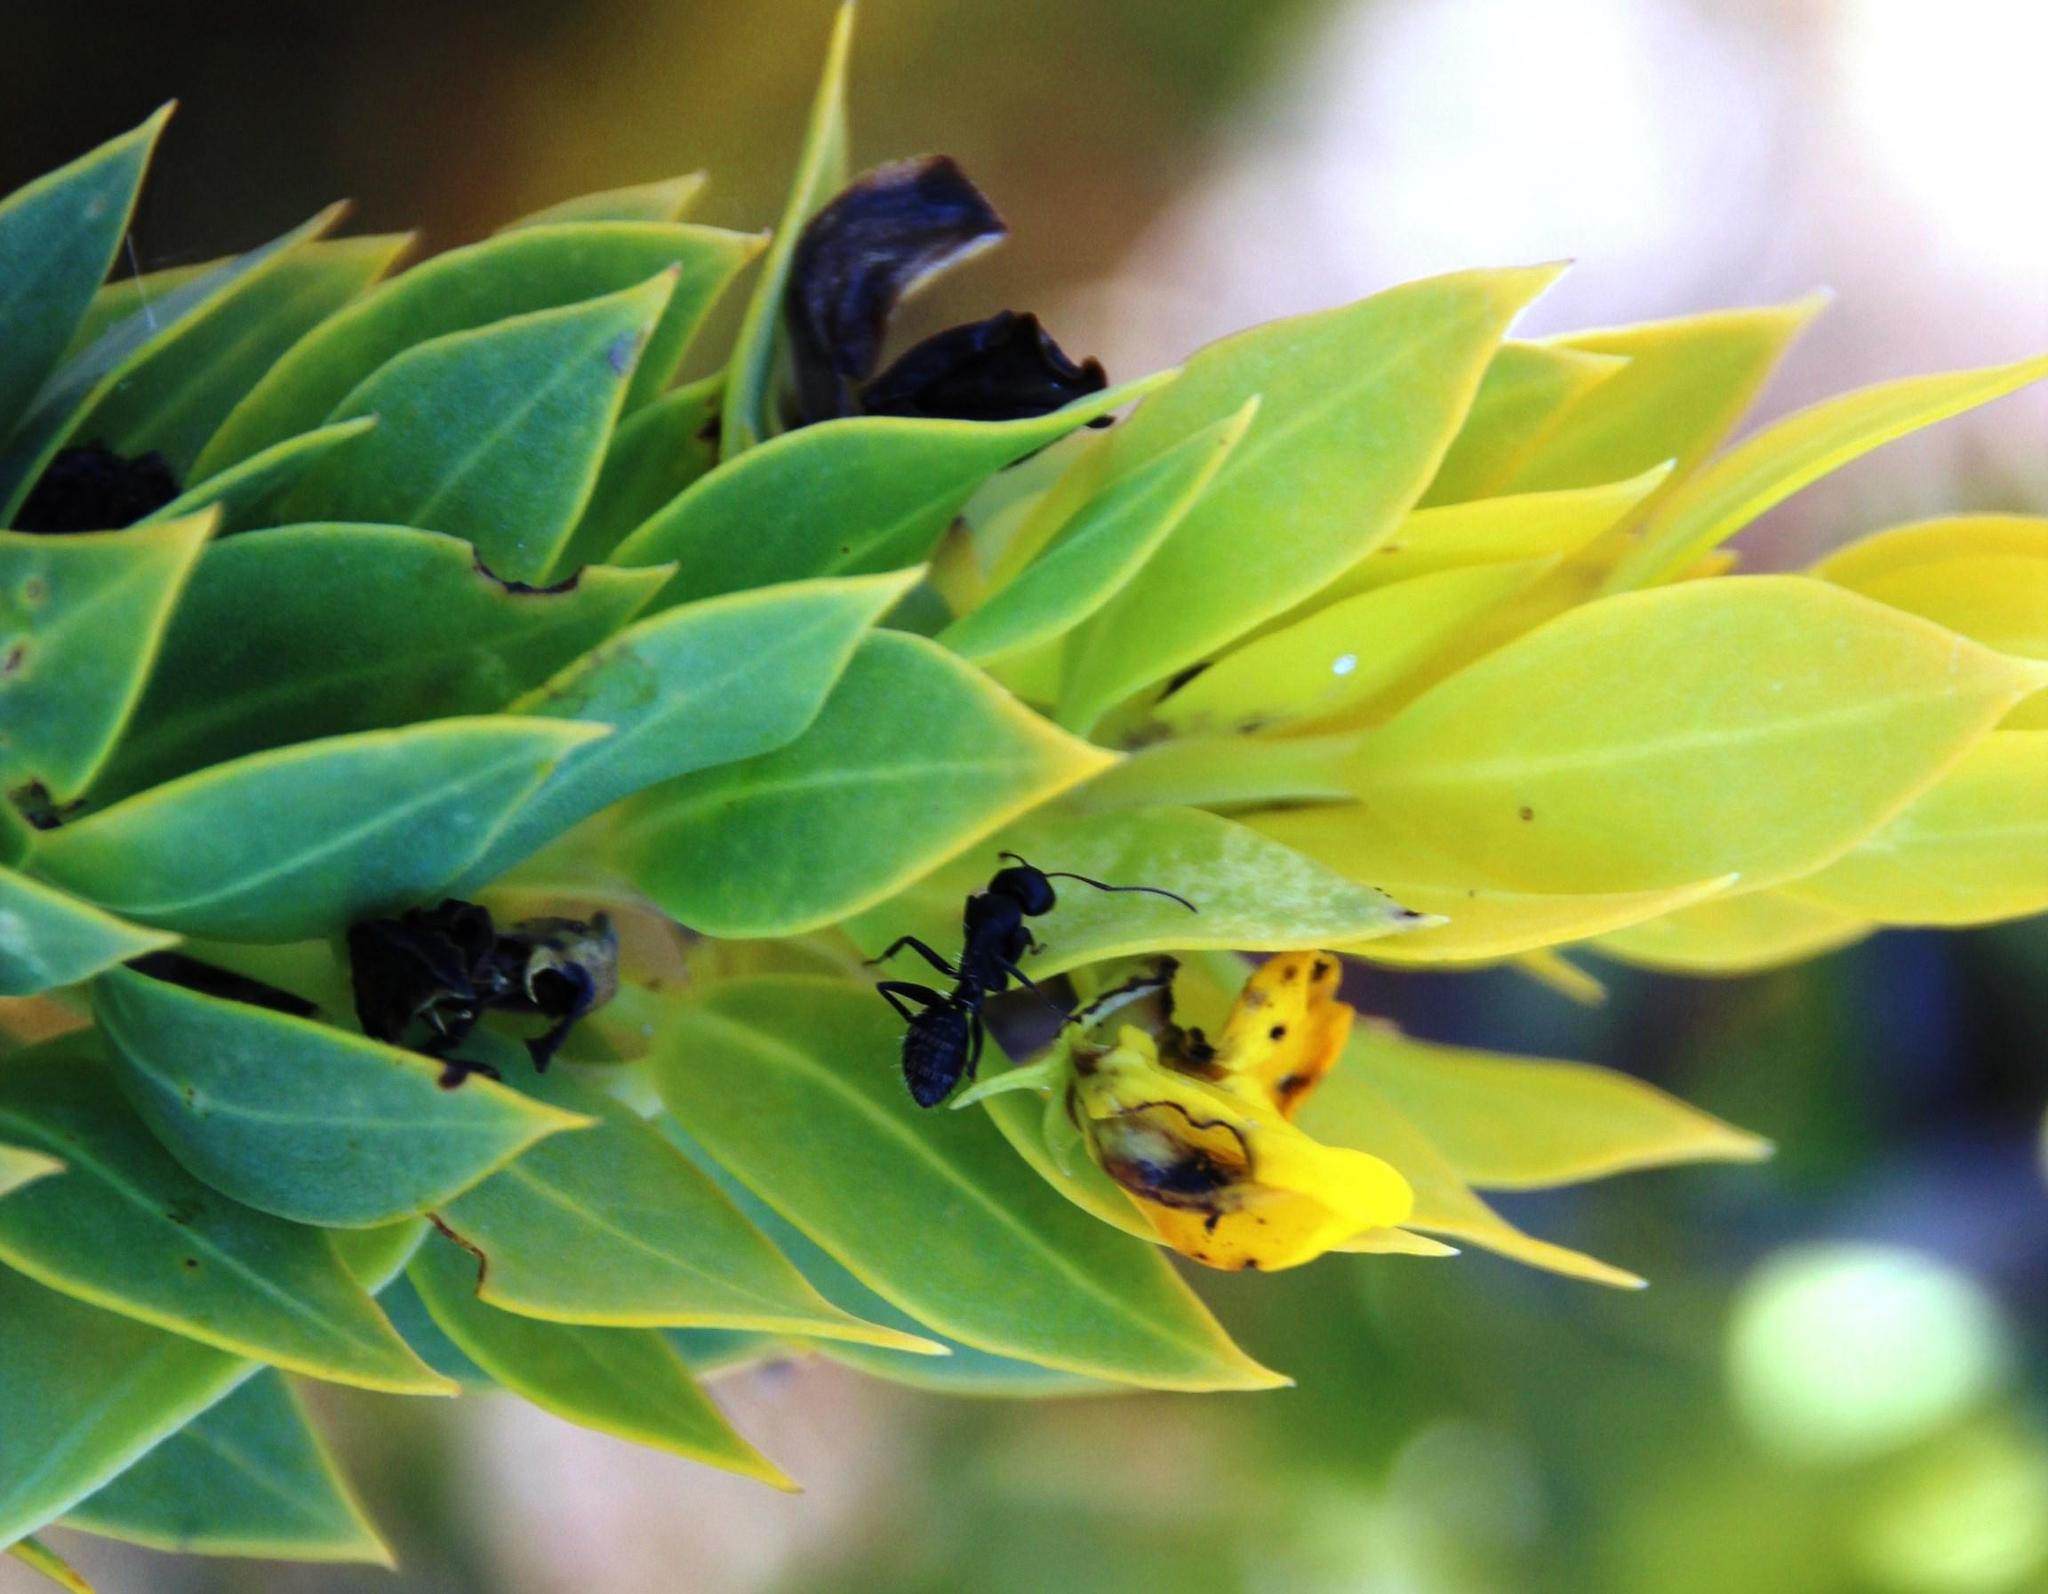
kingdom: Animalia
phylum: Arthropoda
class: Insecta
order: Hymenoptera
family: Formicidae
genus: Camponotus
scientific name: Camponotus niveosetosus
